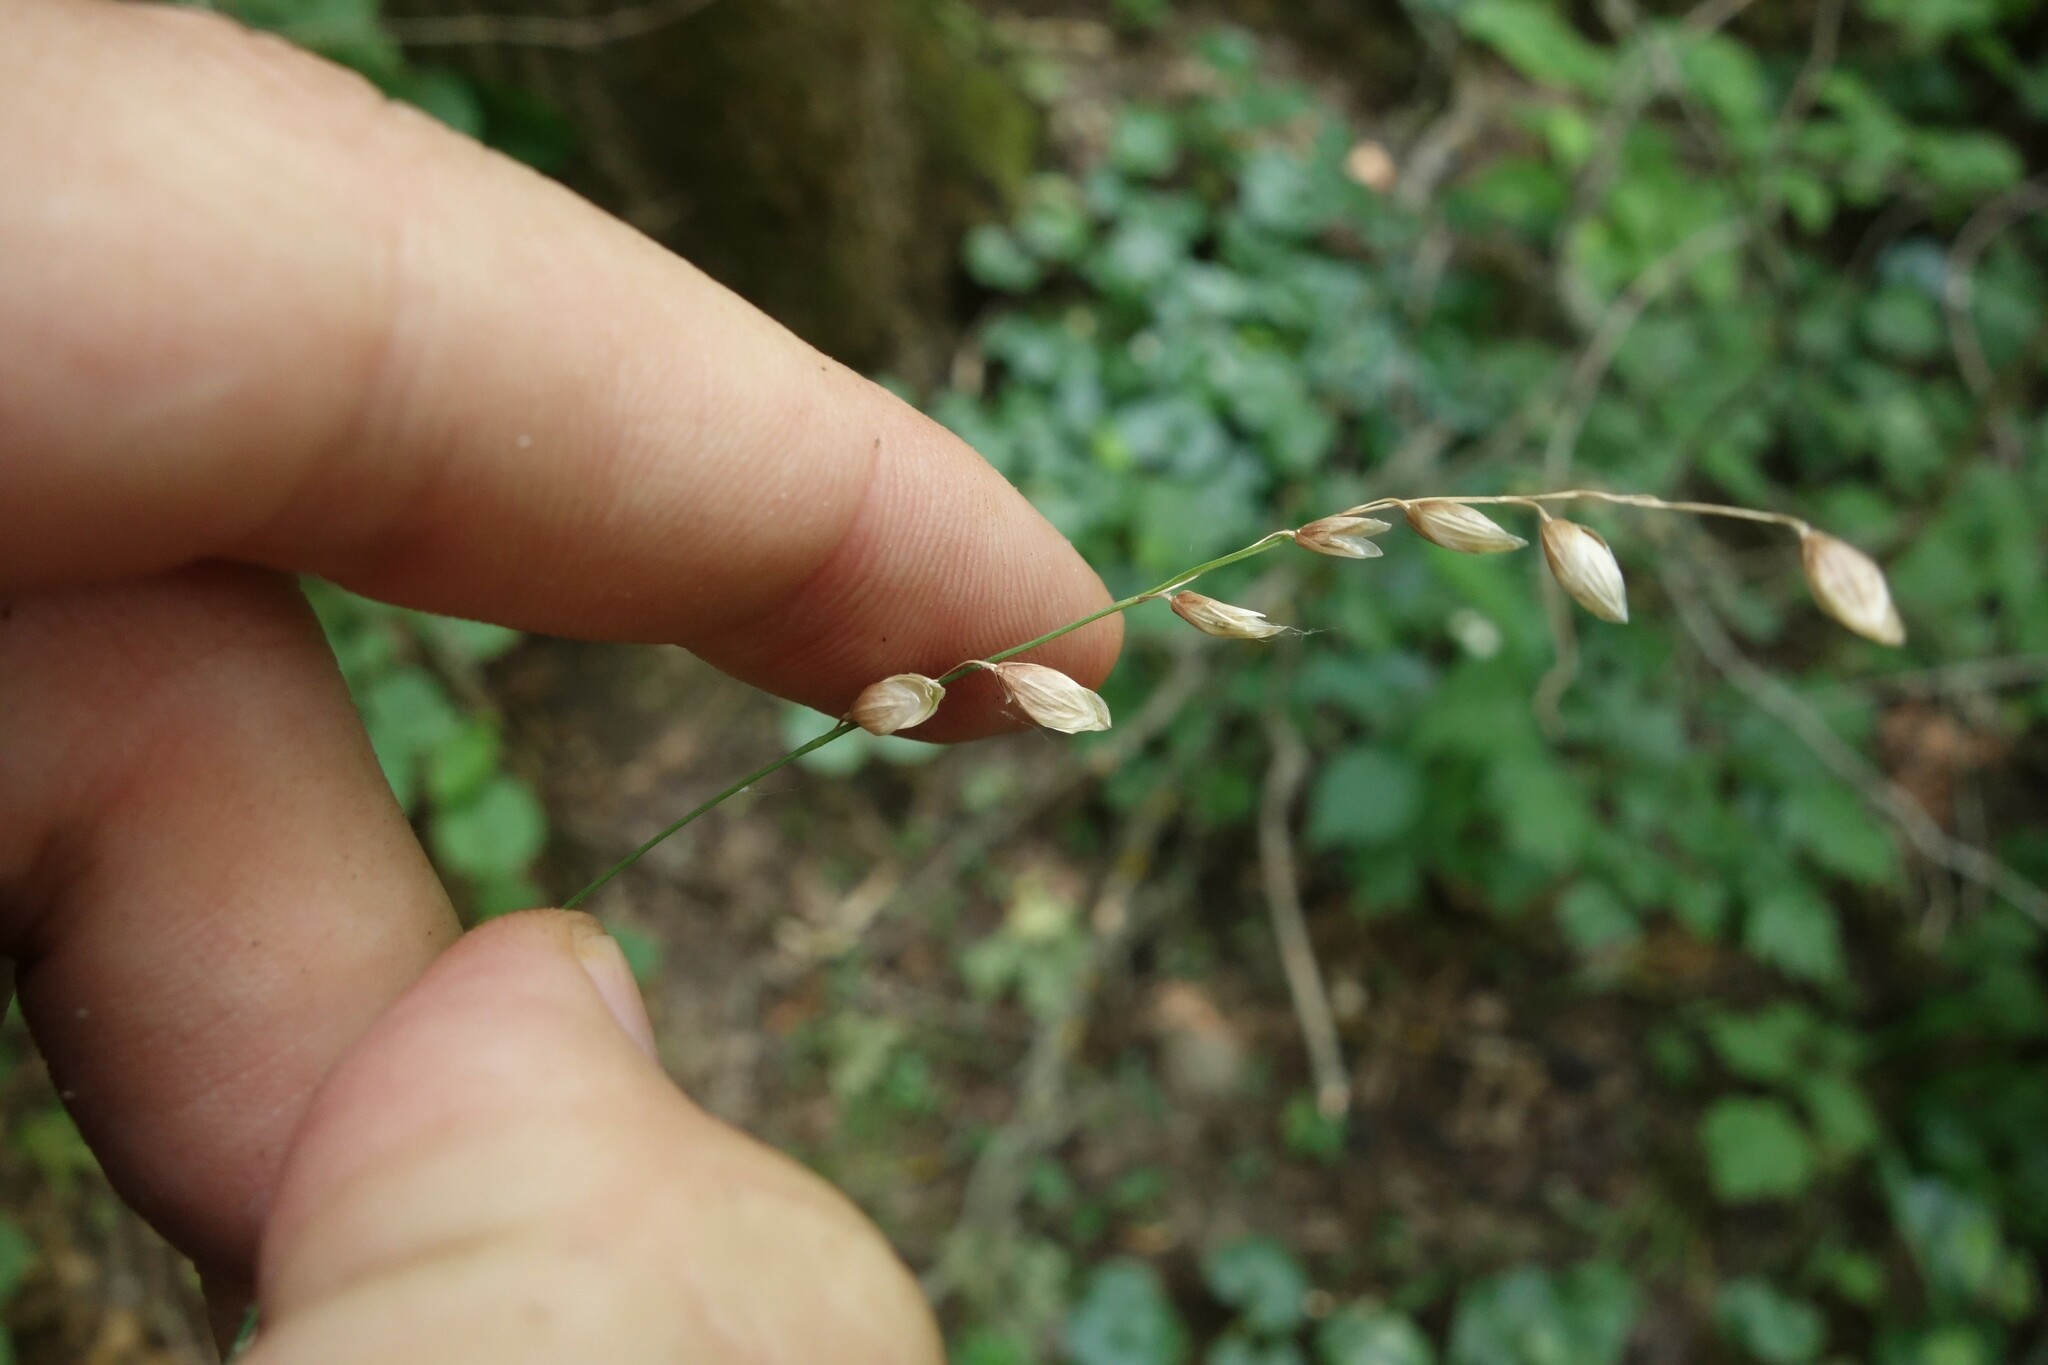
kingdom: Plantae
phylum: Tracheophyta
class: Liliopsida
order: Poales
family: Poaceae
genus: Melica
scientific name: Melica nutans
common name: Mountain melick
